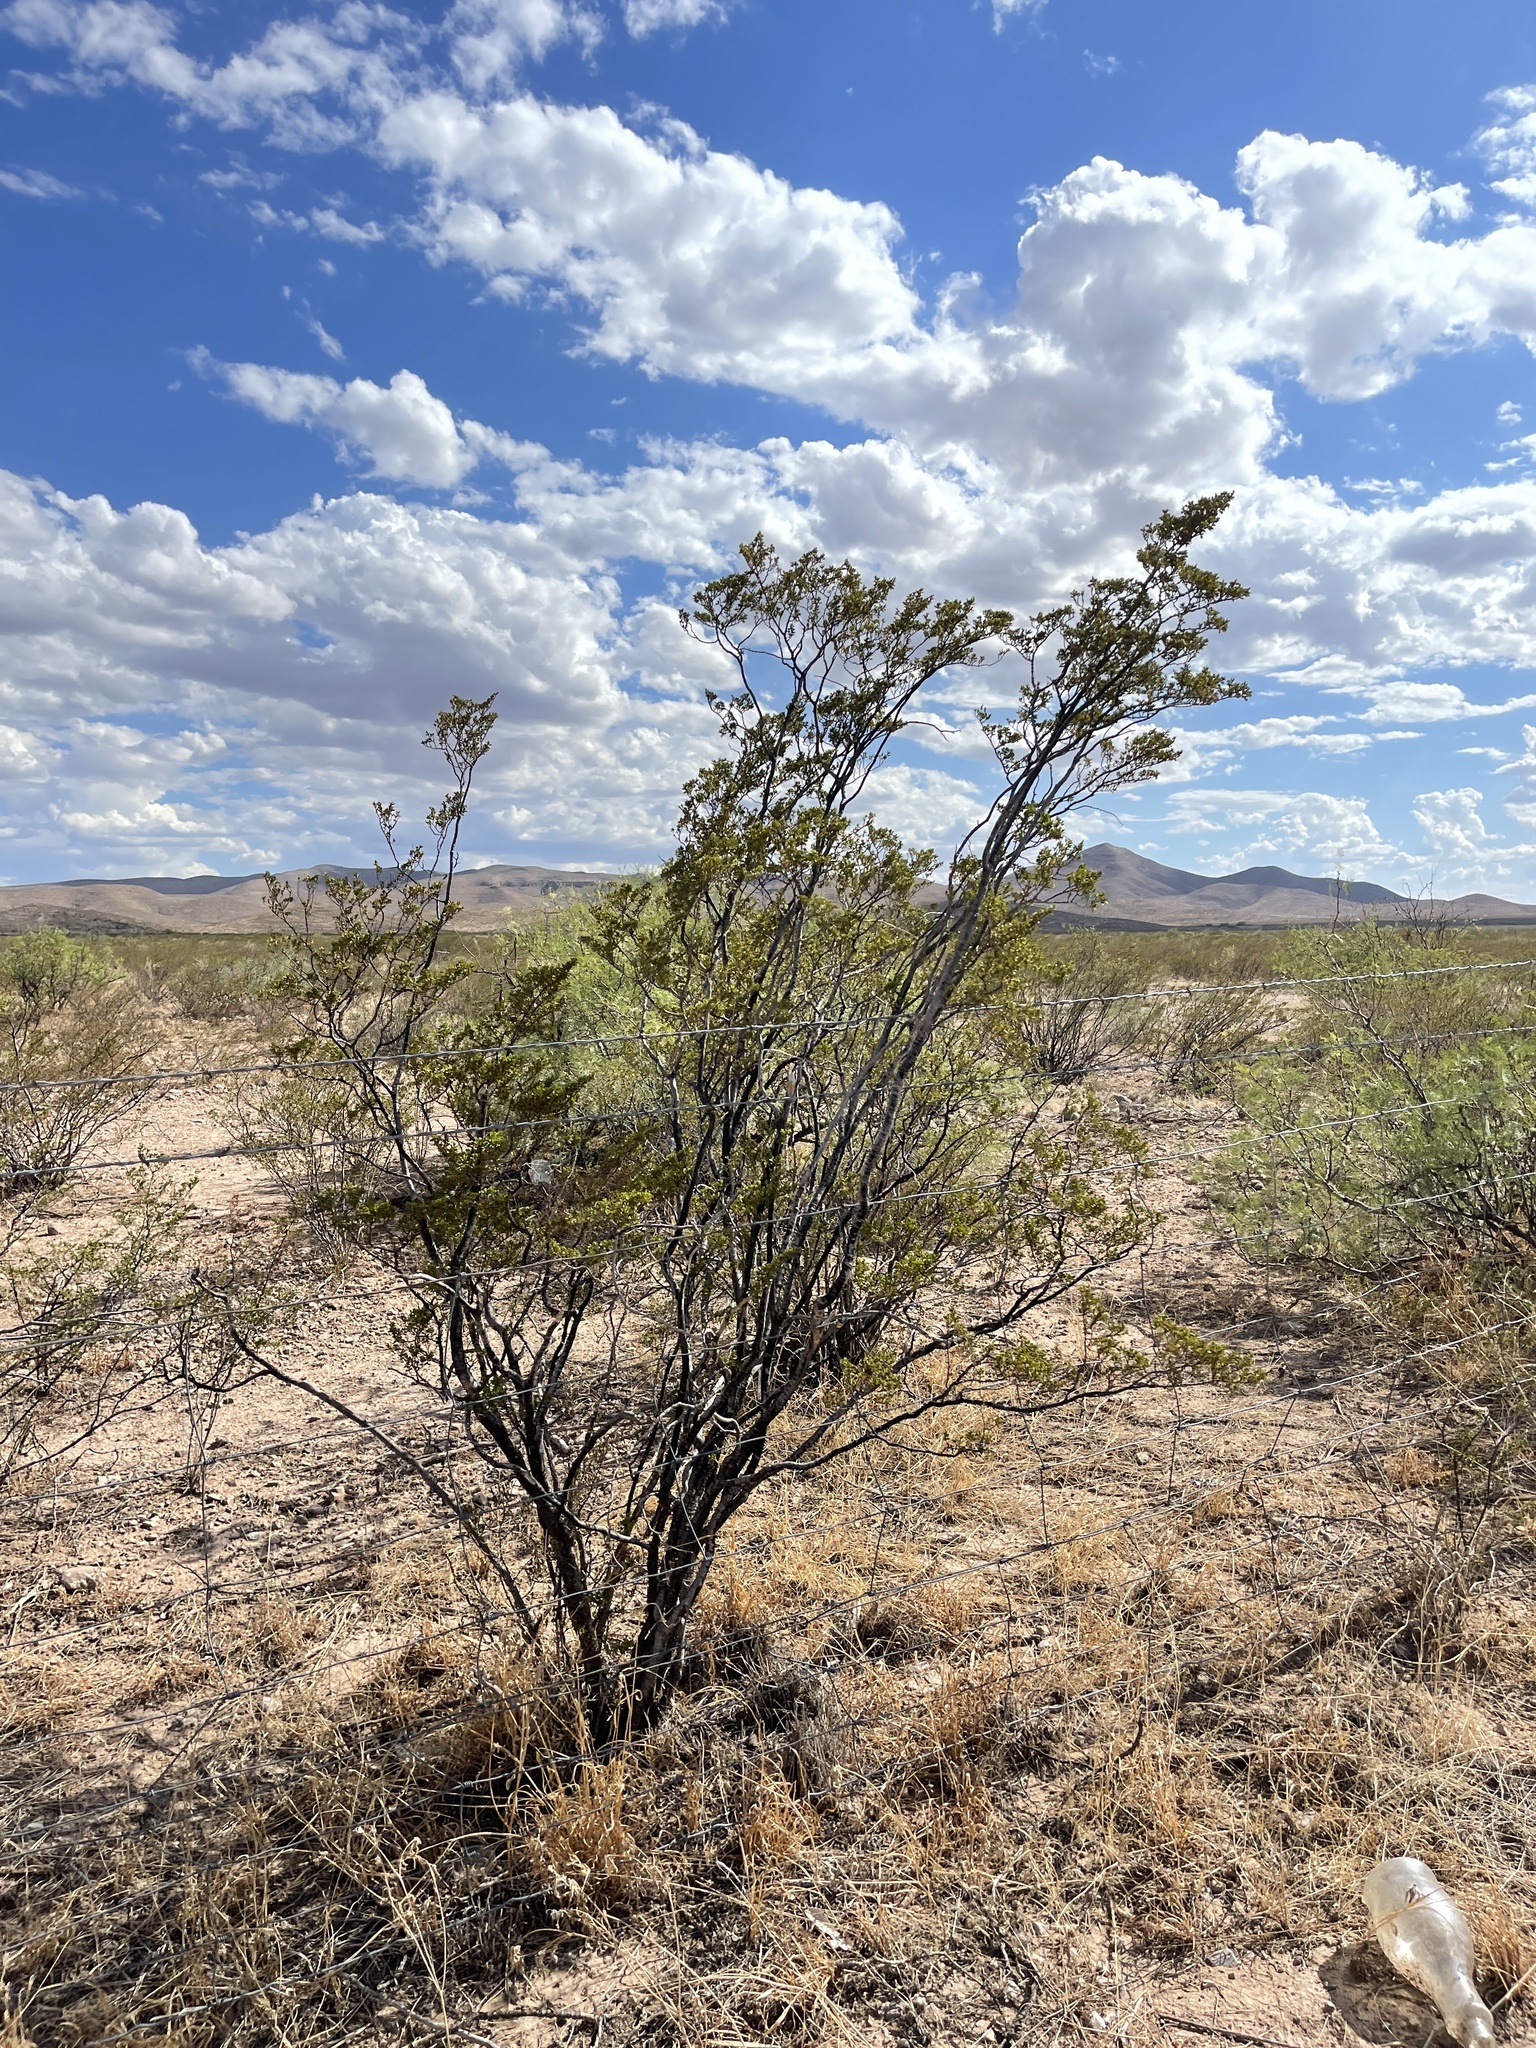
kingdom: Plantae
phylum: Tracheophyta
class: Magnoliopsida
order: Zygophyllales
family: Zygophyllaceae
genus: Larrea
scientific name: Larrea tridentata
